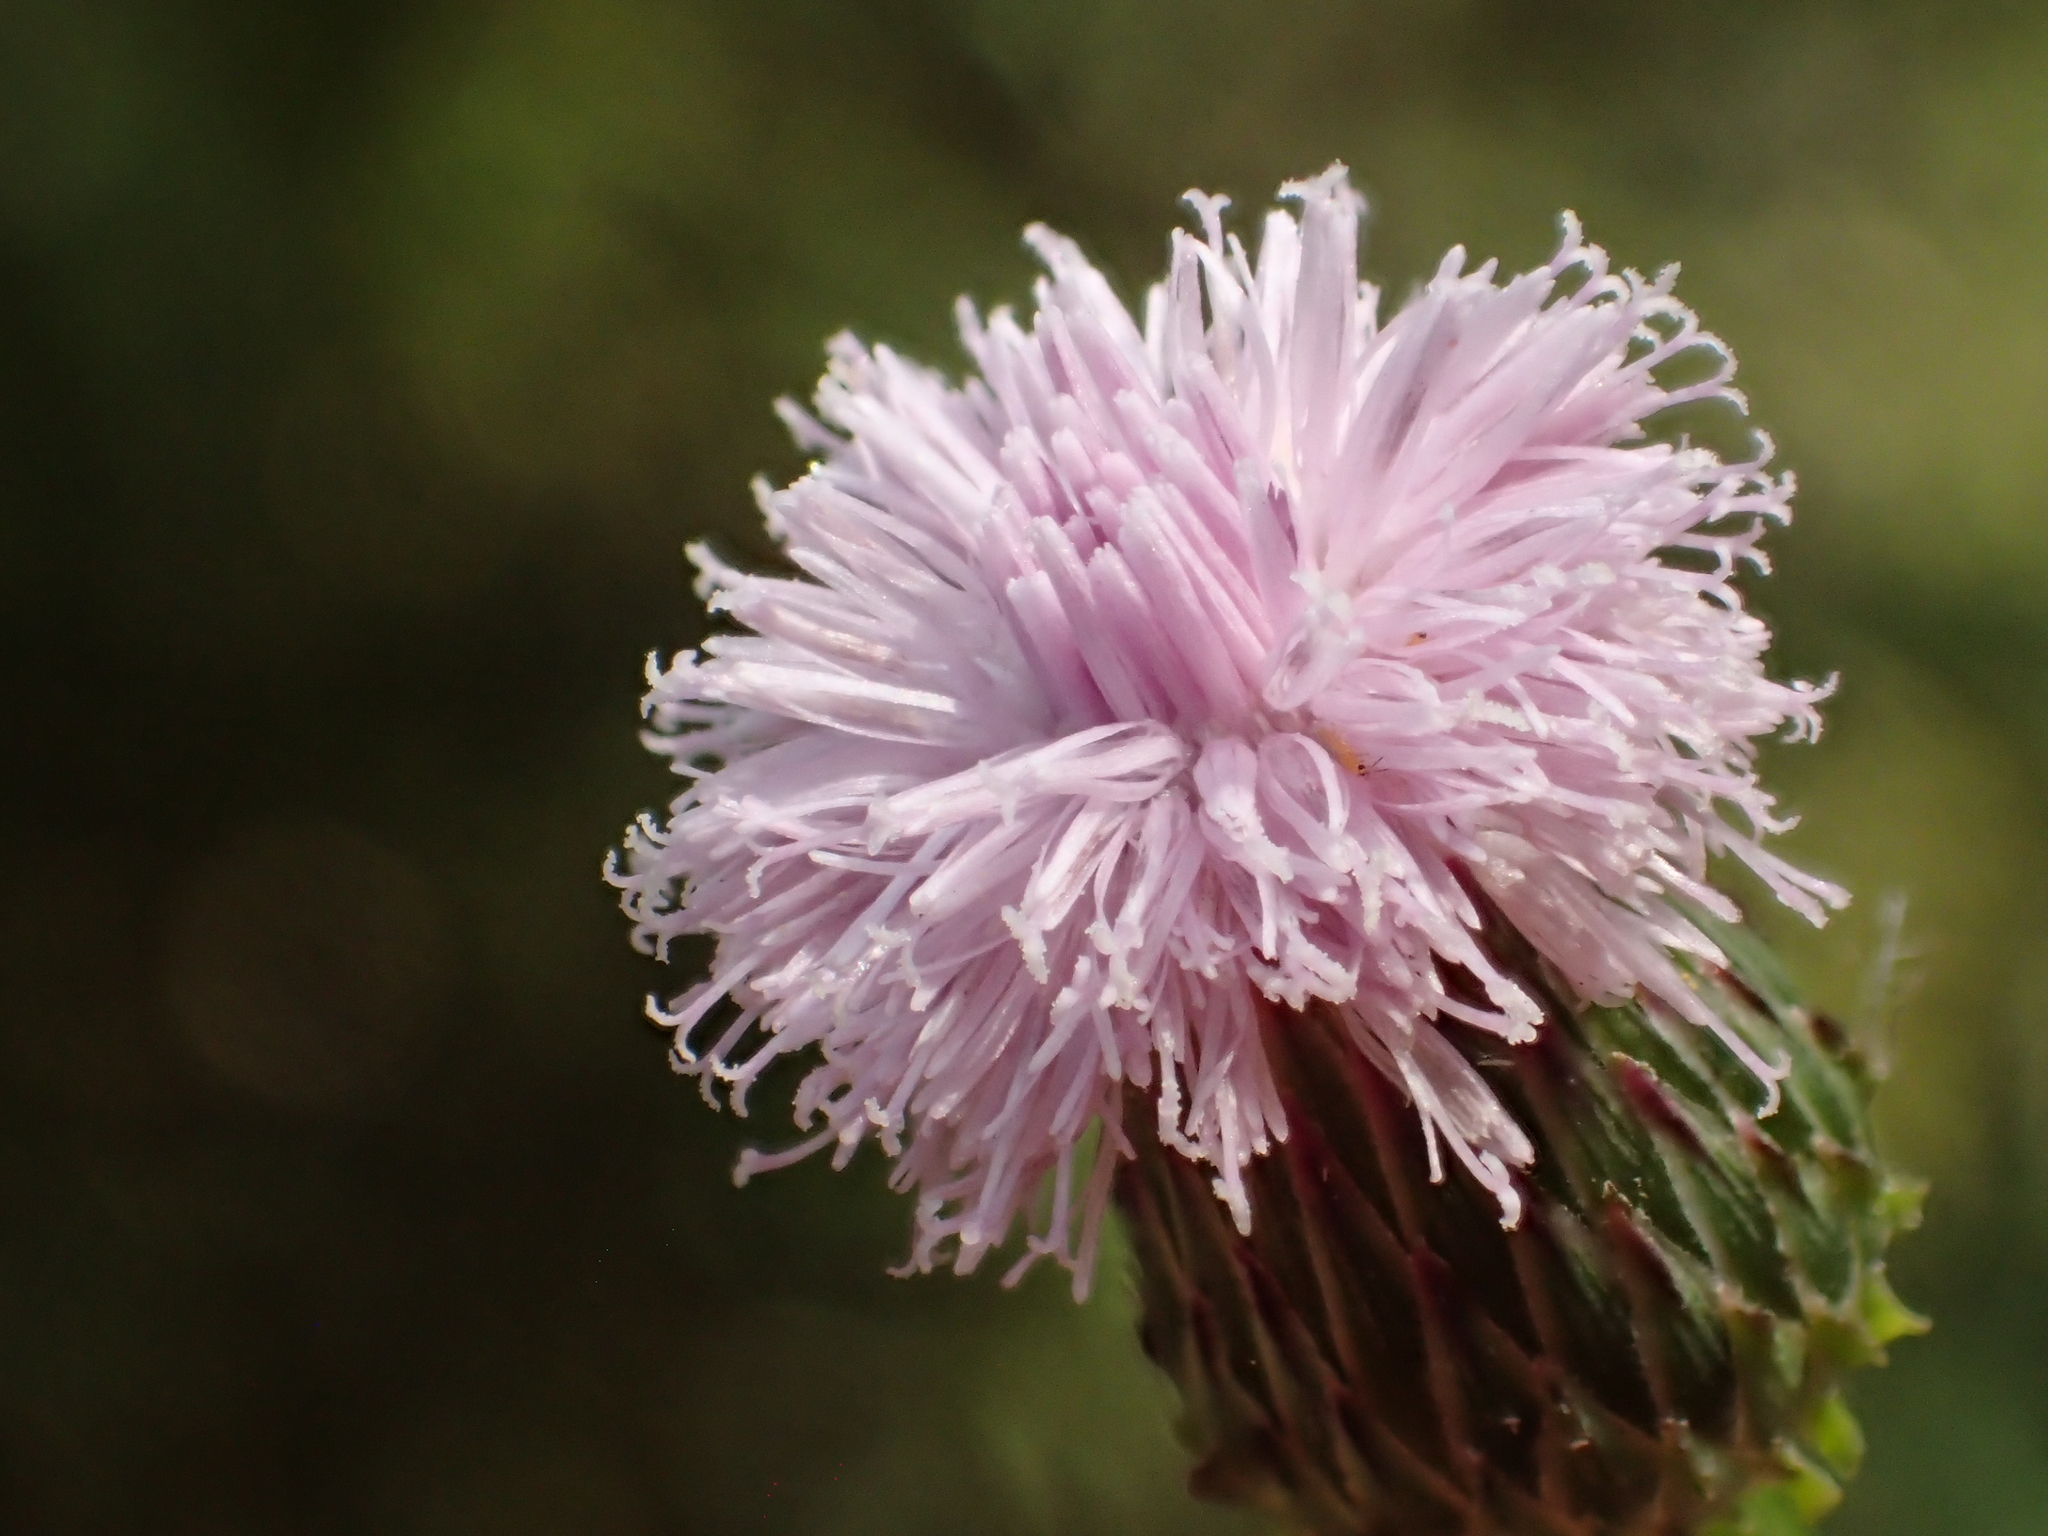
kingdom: Plantae
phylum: Tracheophyta
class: Magnoliopsida
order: Asterales
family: Asteraceae
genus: Saussurea
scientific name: Saussurea lyrata
